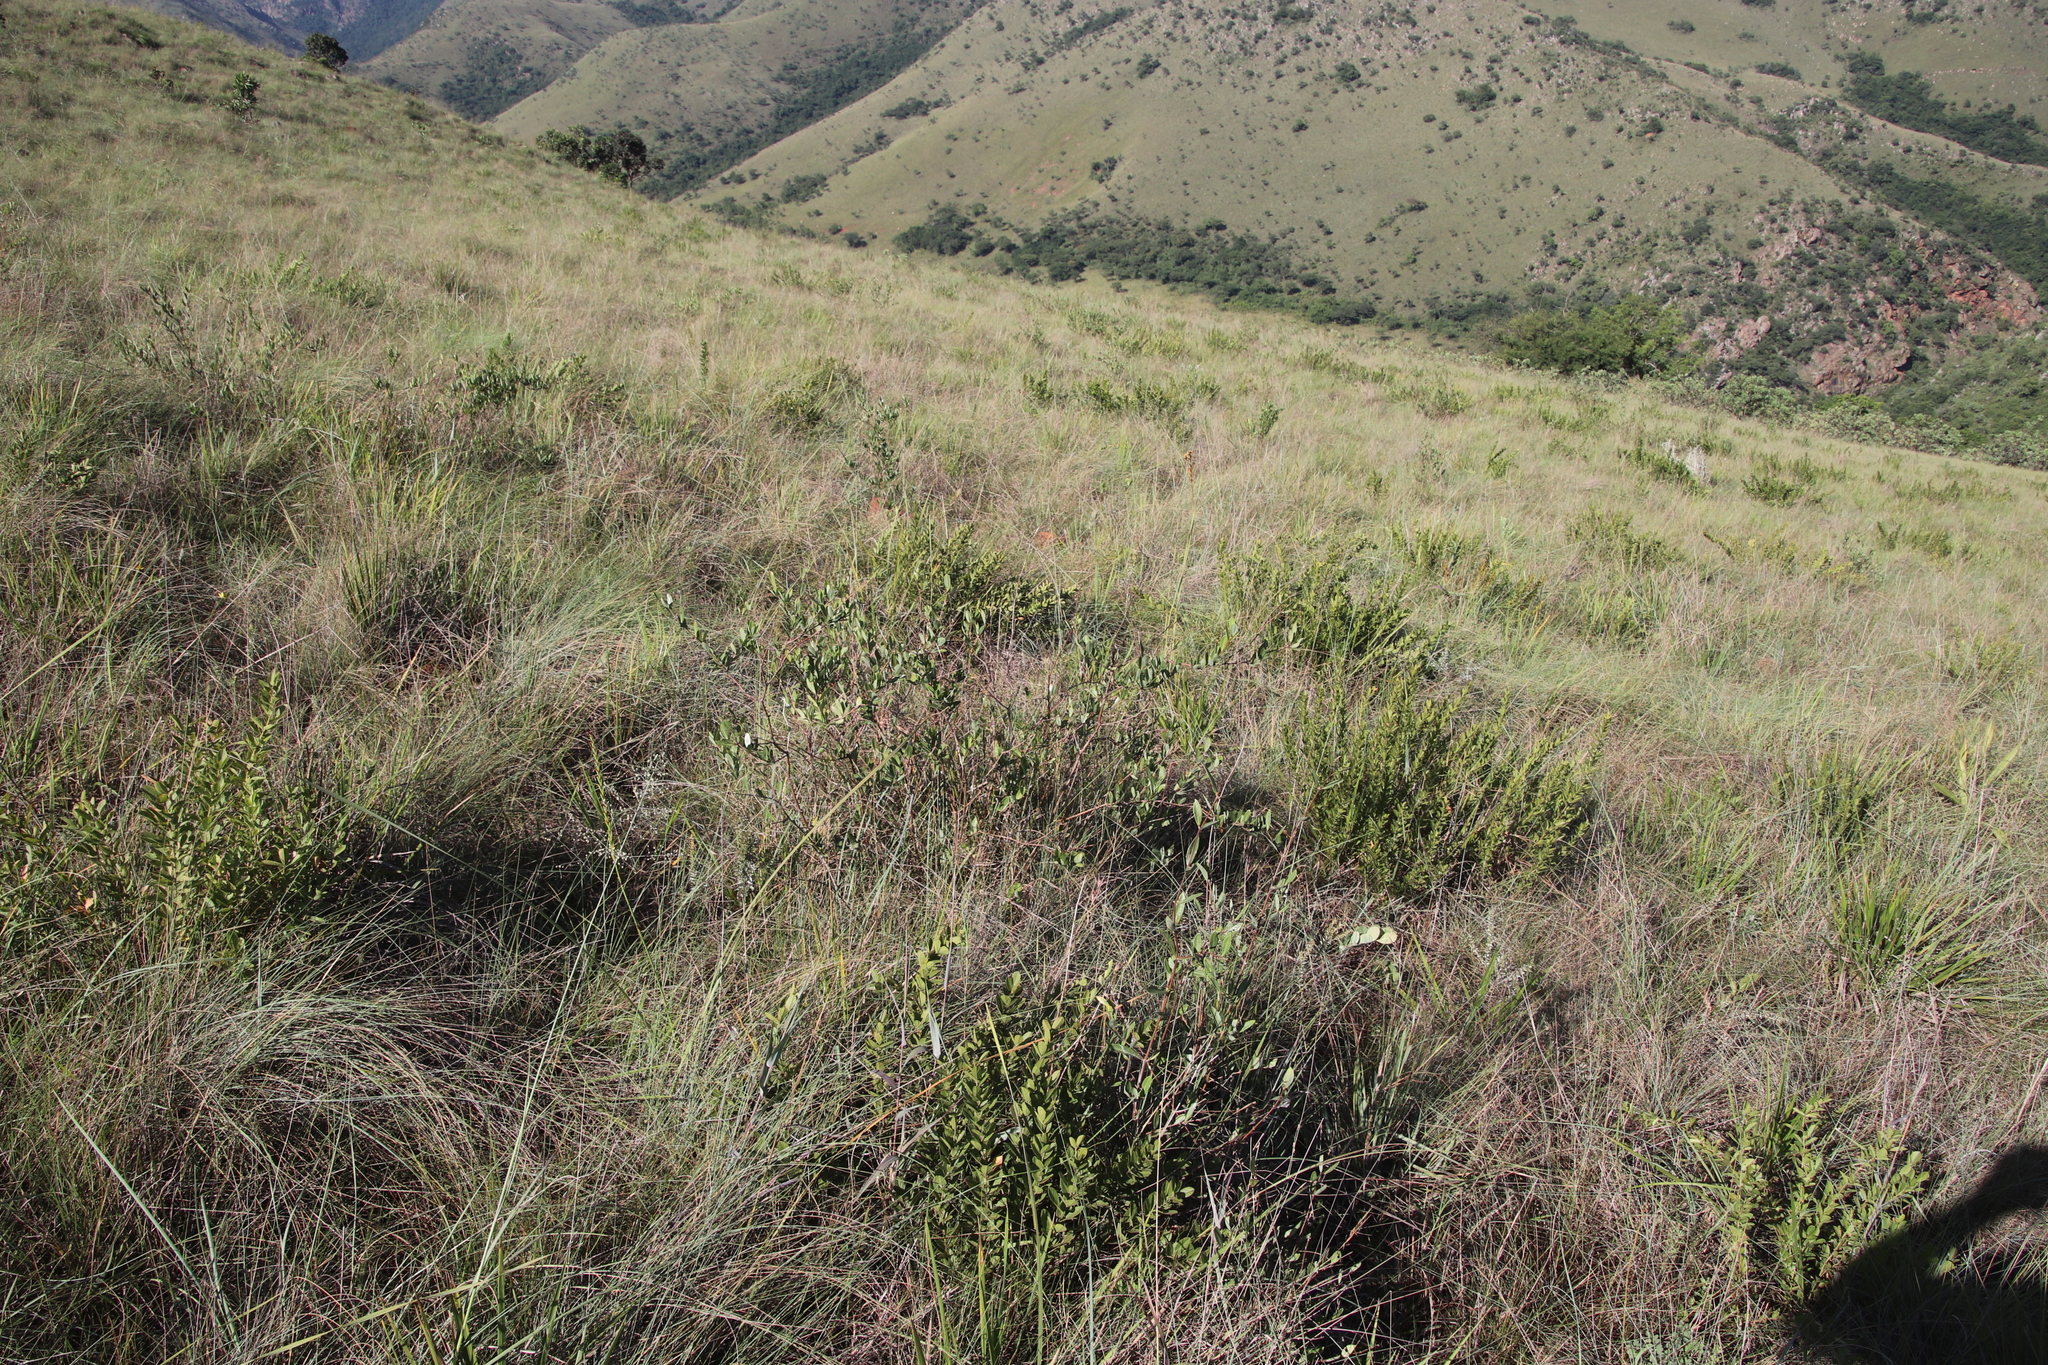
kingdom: Plantae
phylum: Tracheophyta
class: Magnoliopsida
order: Gentianales
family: Apocynaceae
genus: Cryptolepis
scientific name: Cryptolepis oblongifolia
